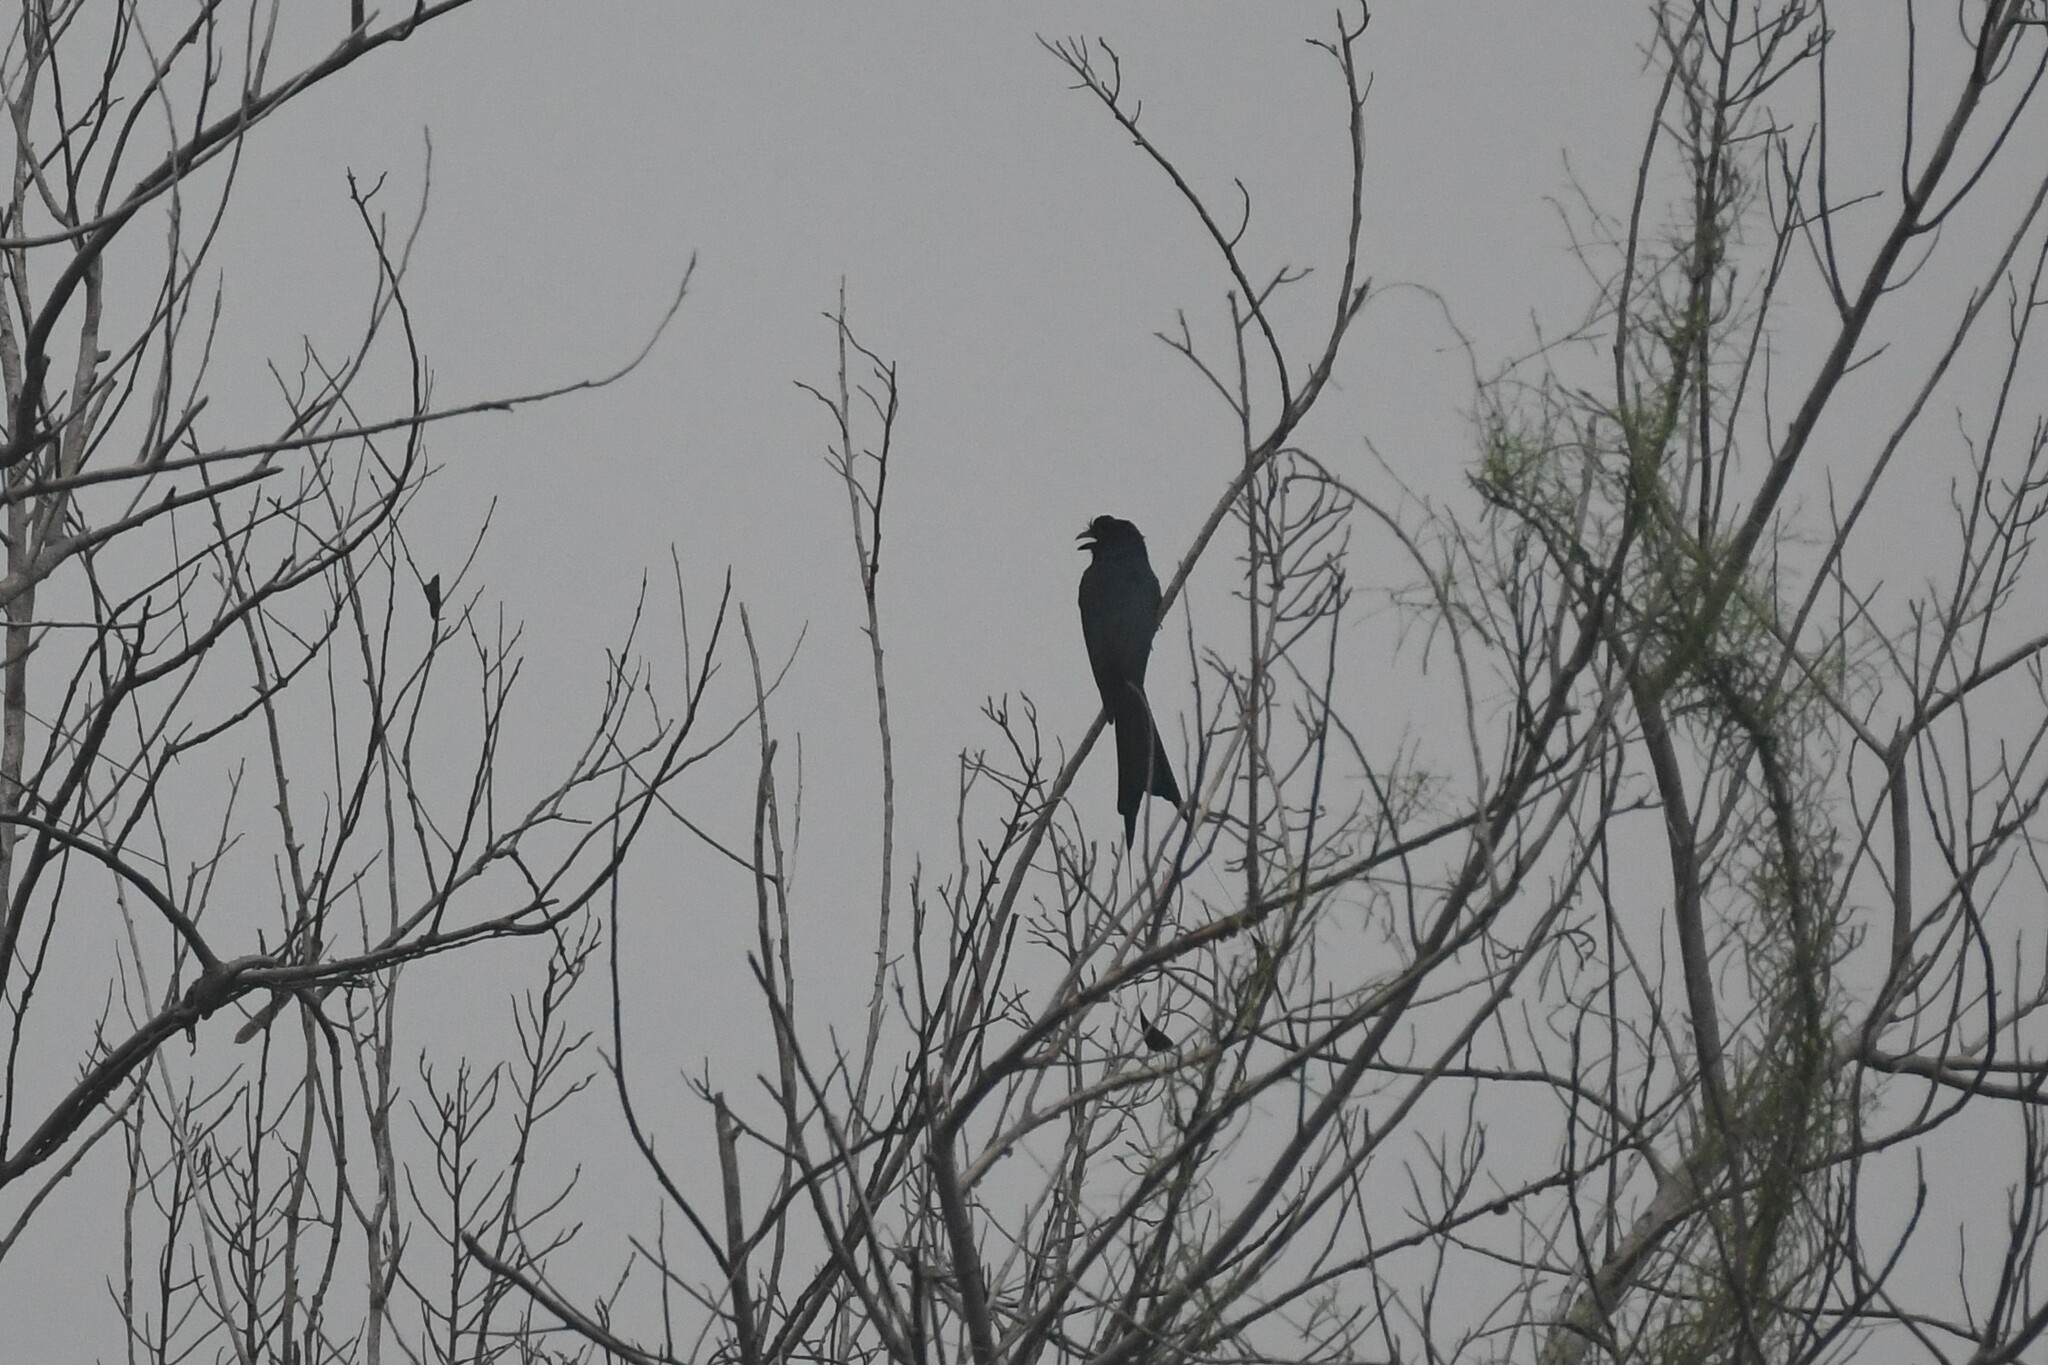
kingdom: Animalia
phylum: Chordata
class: Aves
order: Passeriformes
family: Dicruridae
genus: Dicrurus
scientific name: Dicrurus paradiseus
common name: Greater racket-tailed drongo
